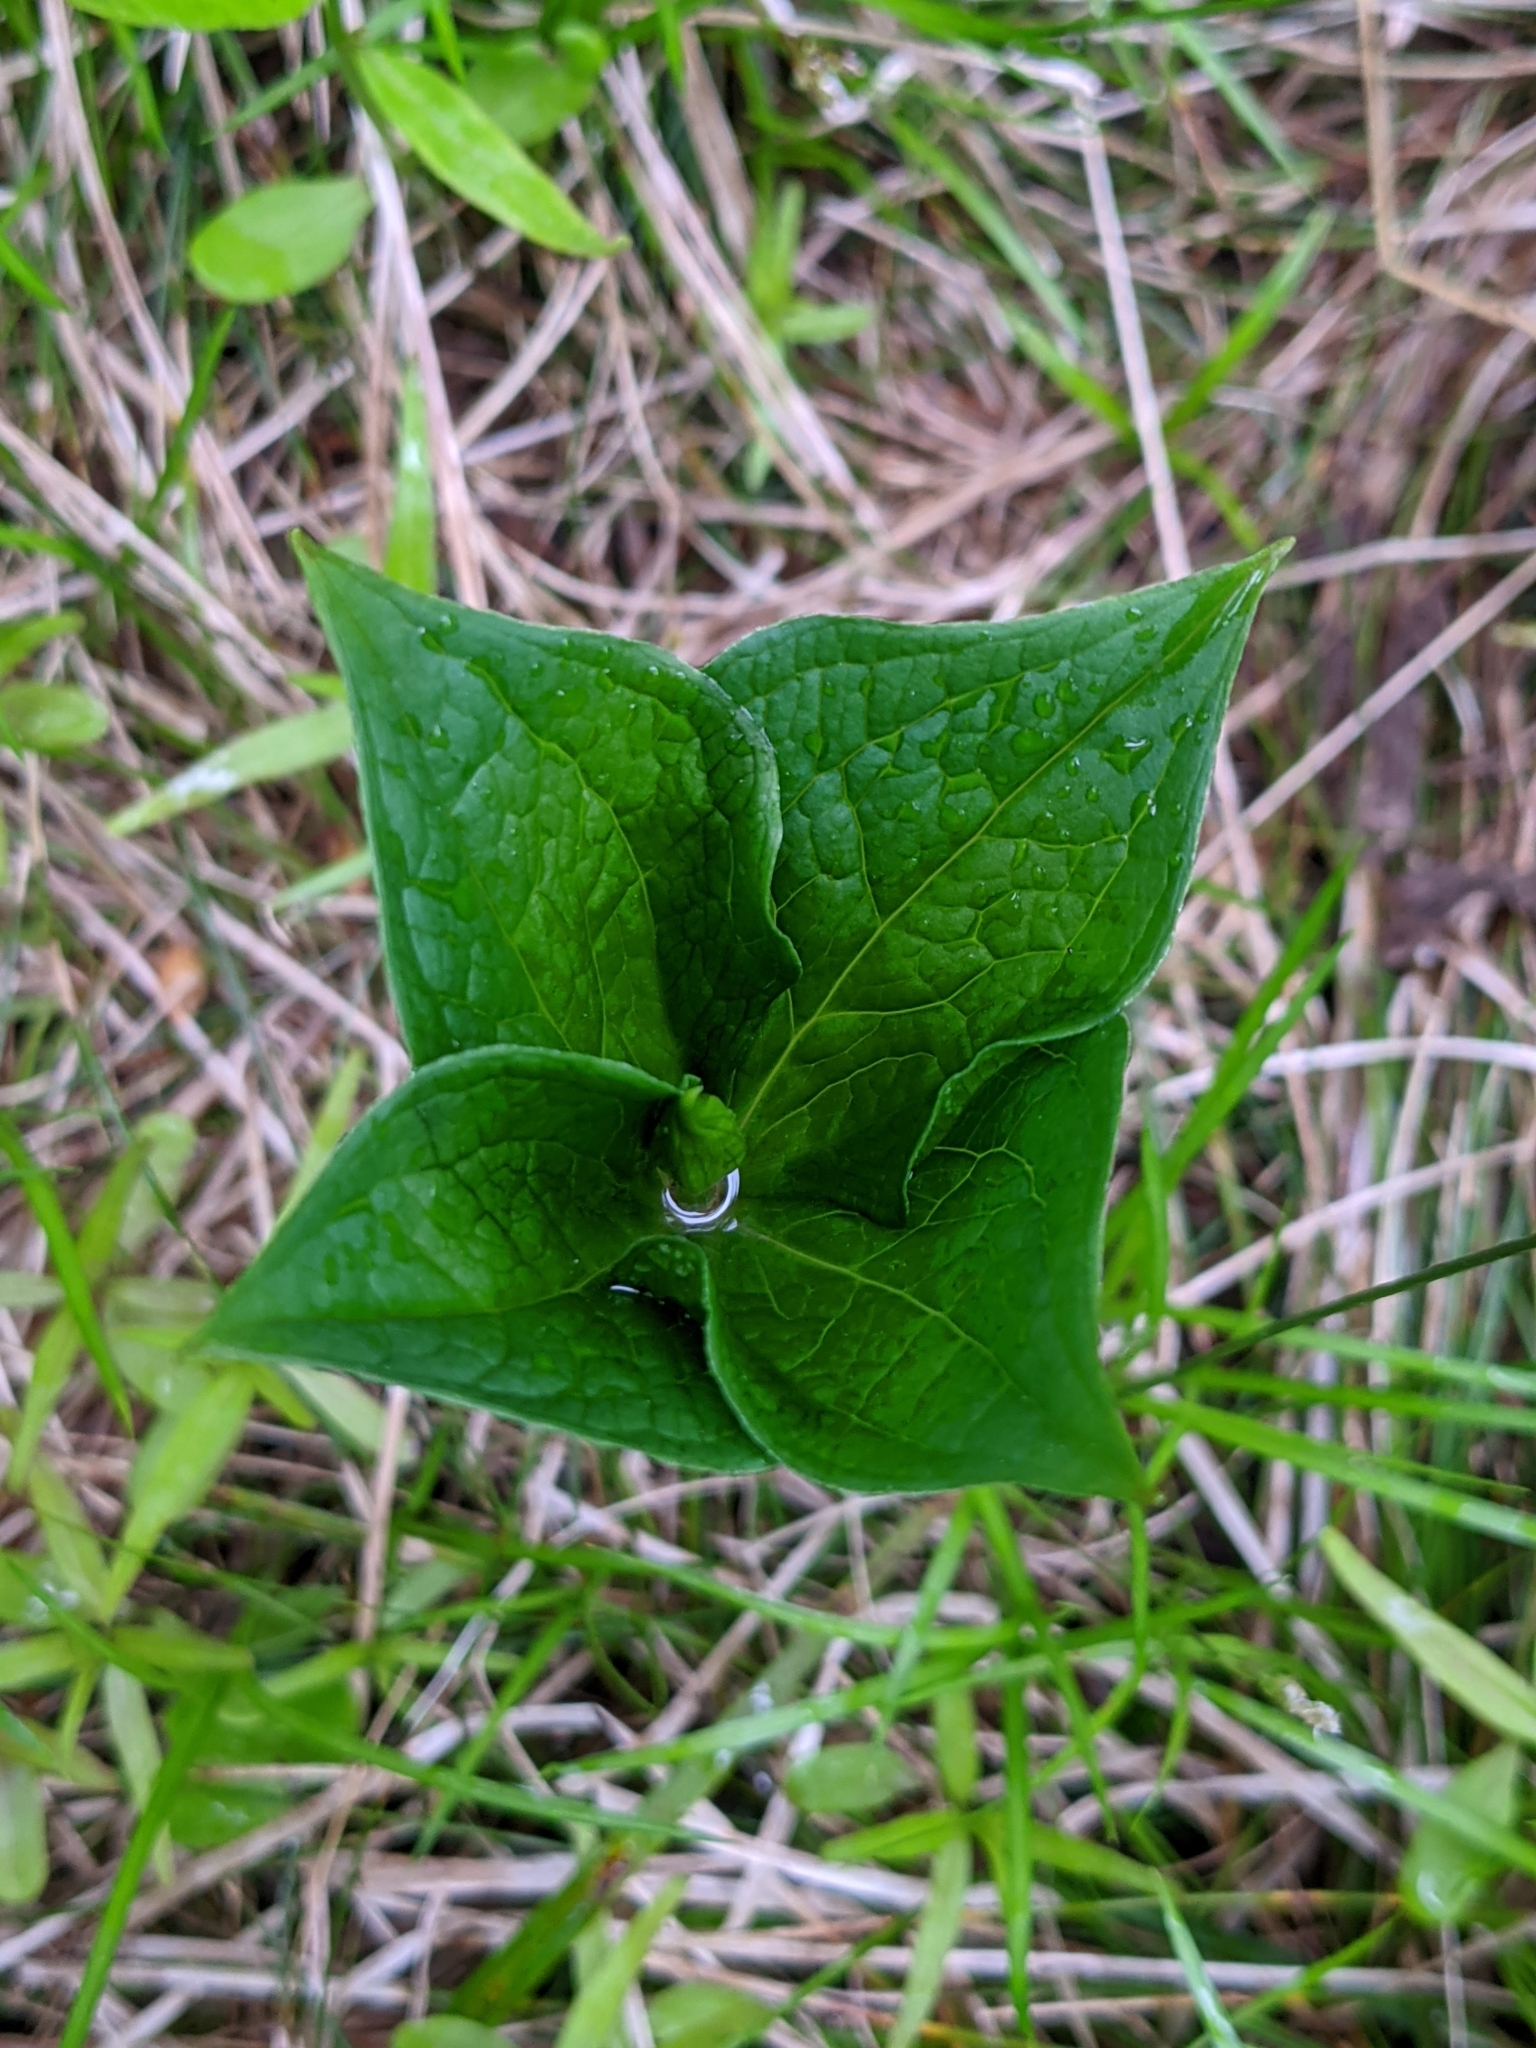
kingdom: Plantae
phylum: Tracheophyta
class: Liliopsida
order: Liliales
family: Melanthiaceae
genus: Paris
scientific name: Paris quadrifolia
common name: Herb-paris
